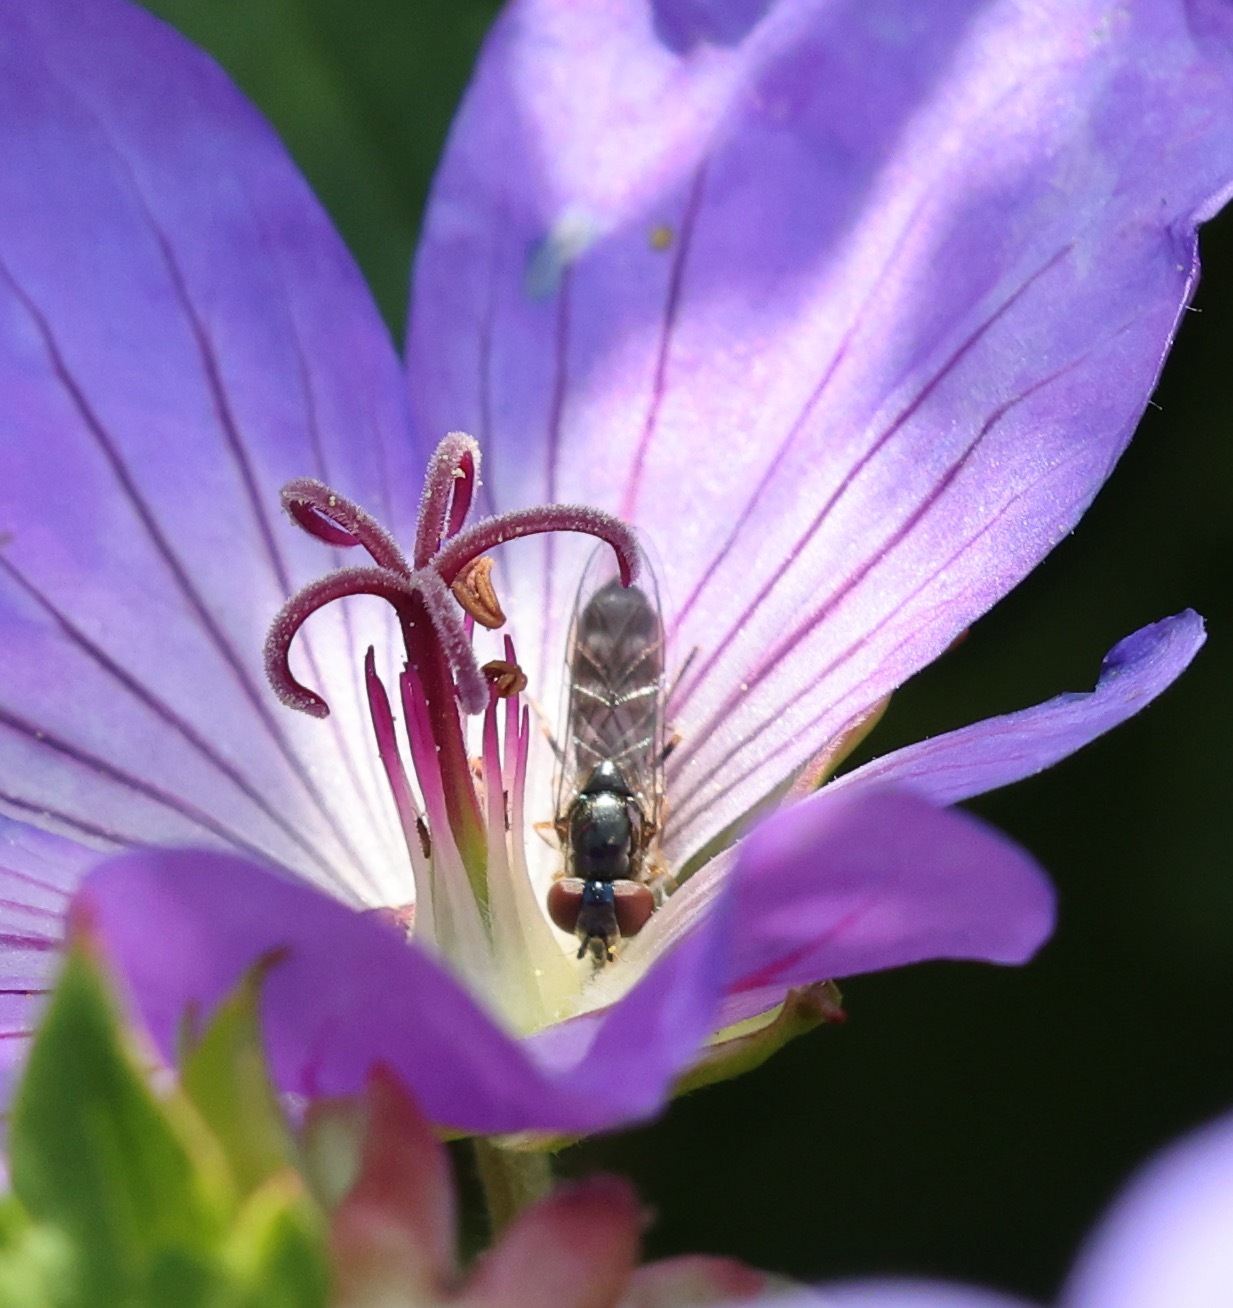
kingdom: Animalia
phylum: Arthropoda
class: Insecta
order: Diptera
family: Syrphidae
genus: Platycheirus
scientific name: Platycheirus albimanus
